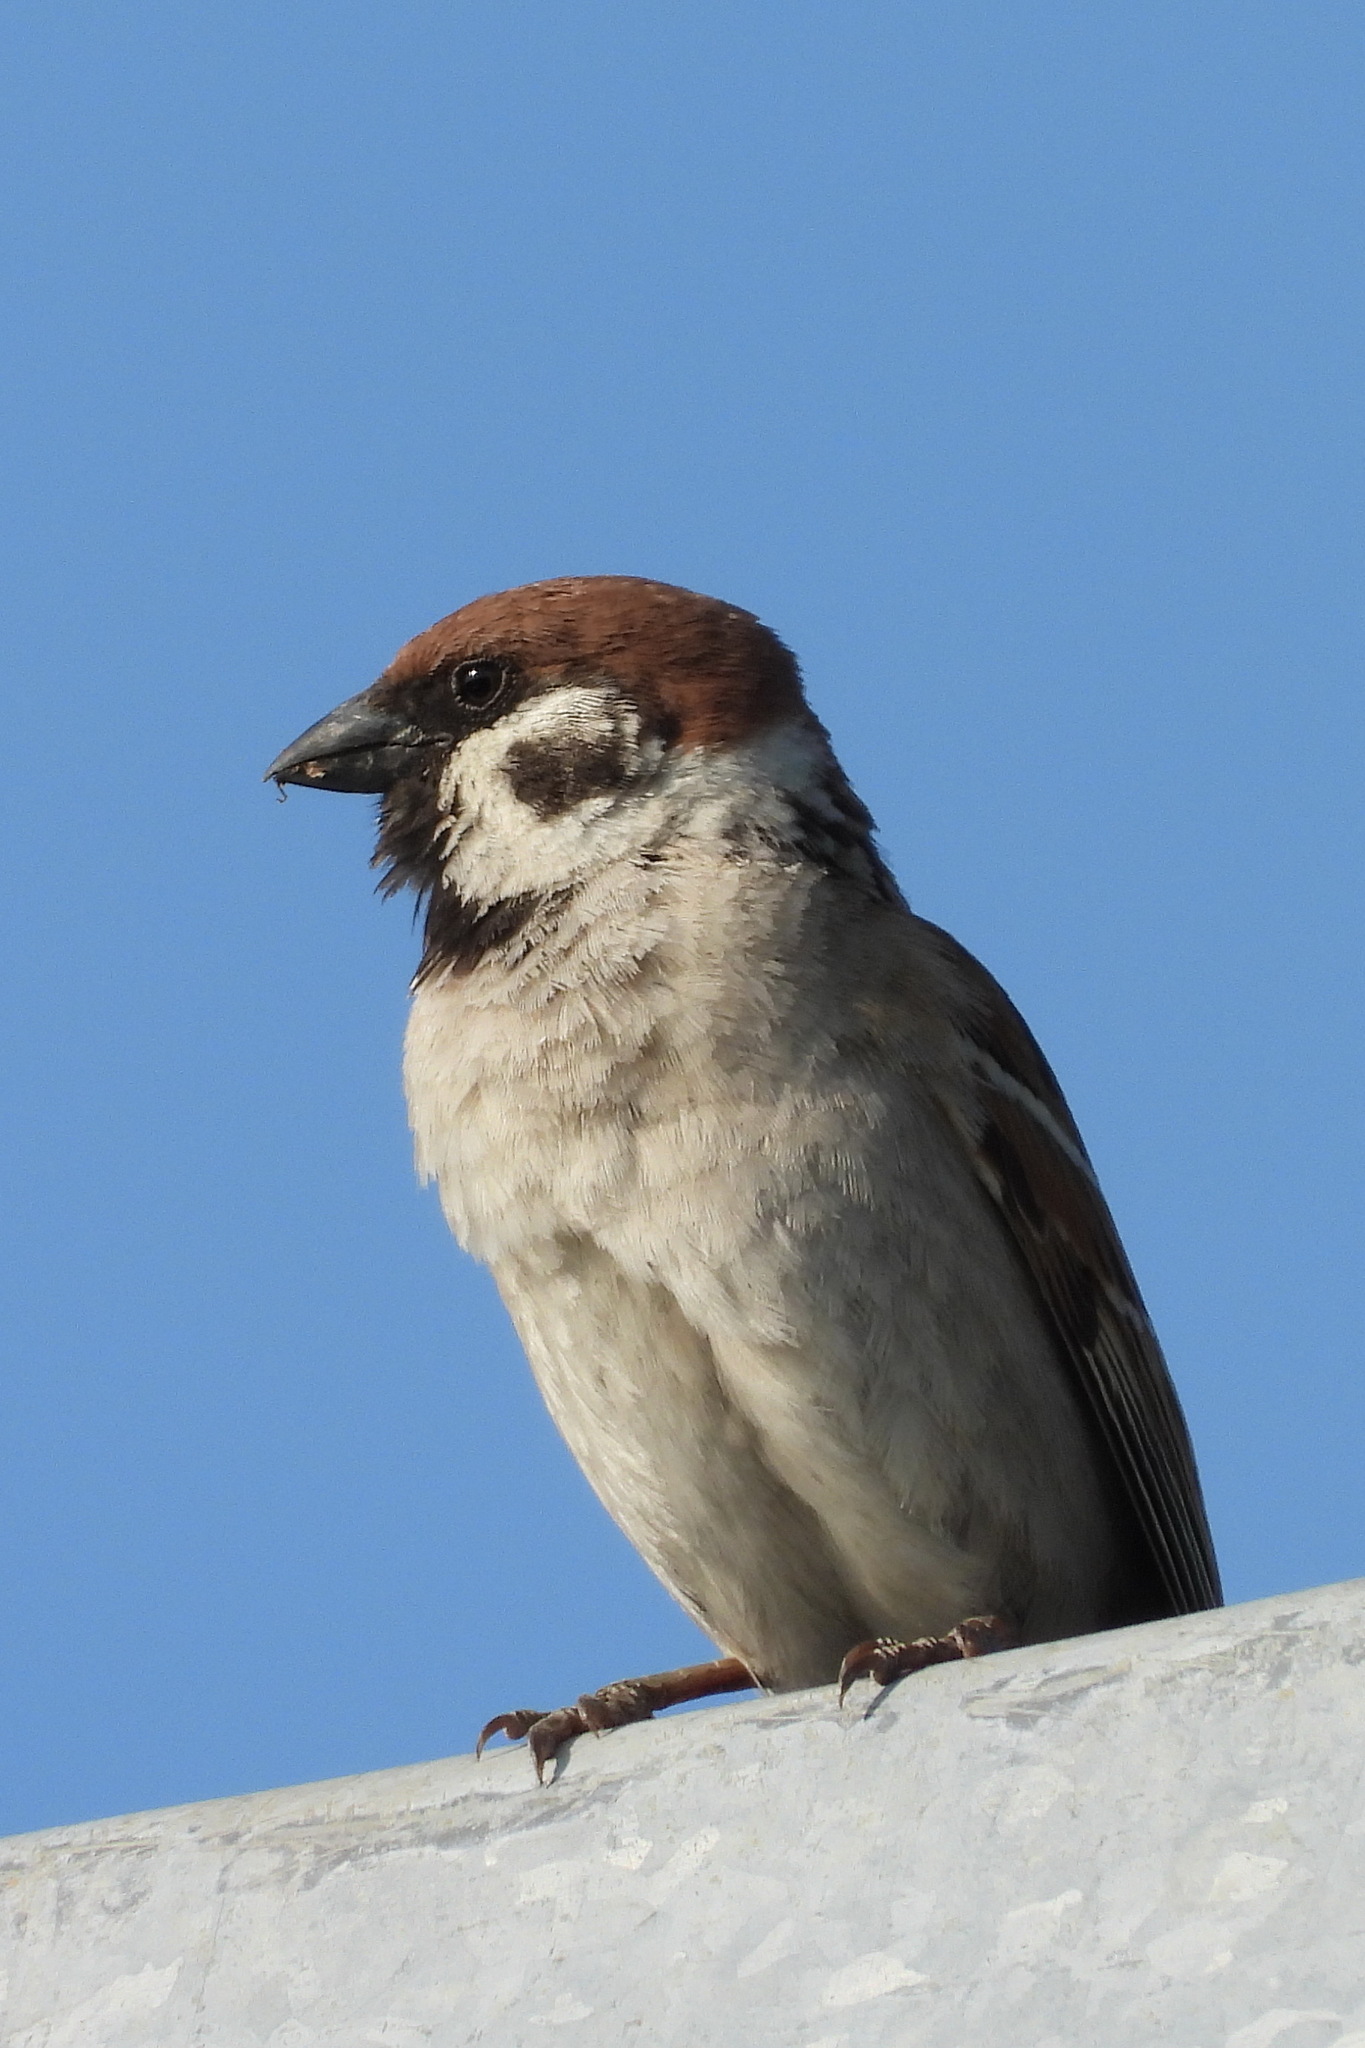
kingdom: Animalia
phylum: Chordata
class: Aves
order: Passeriformes
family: Passeridae
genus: Passer
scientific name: Passer montanus
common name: Eurasian tree sparrow
